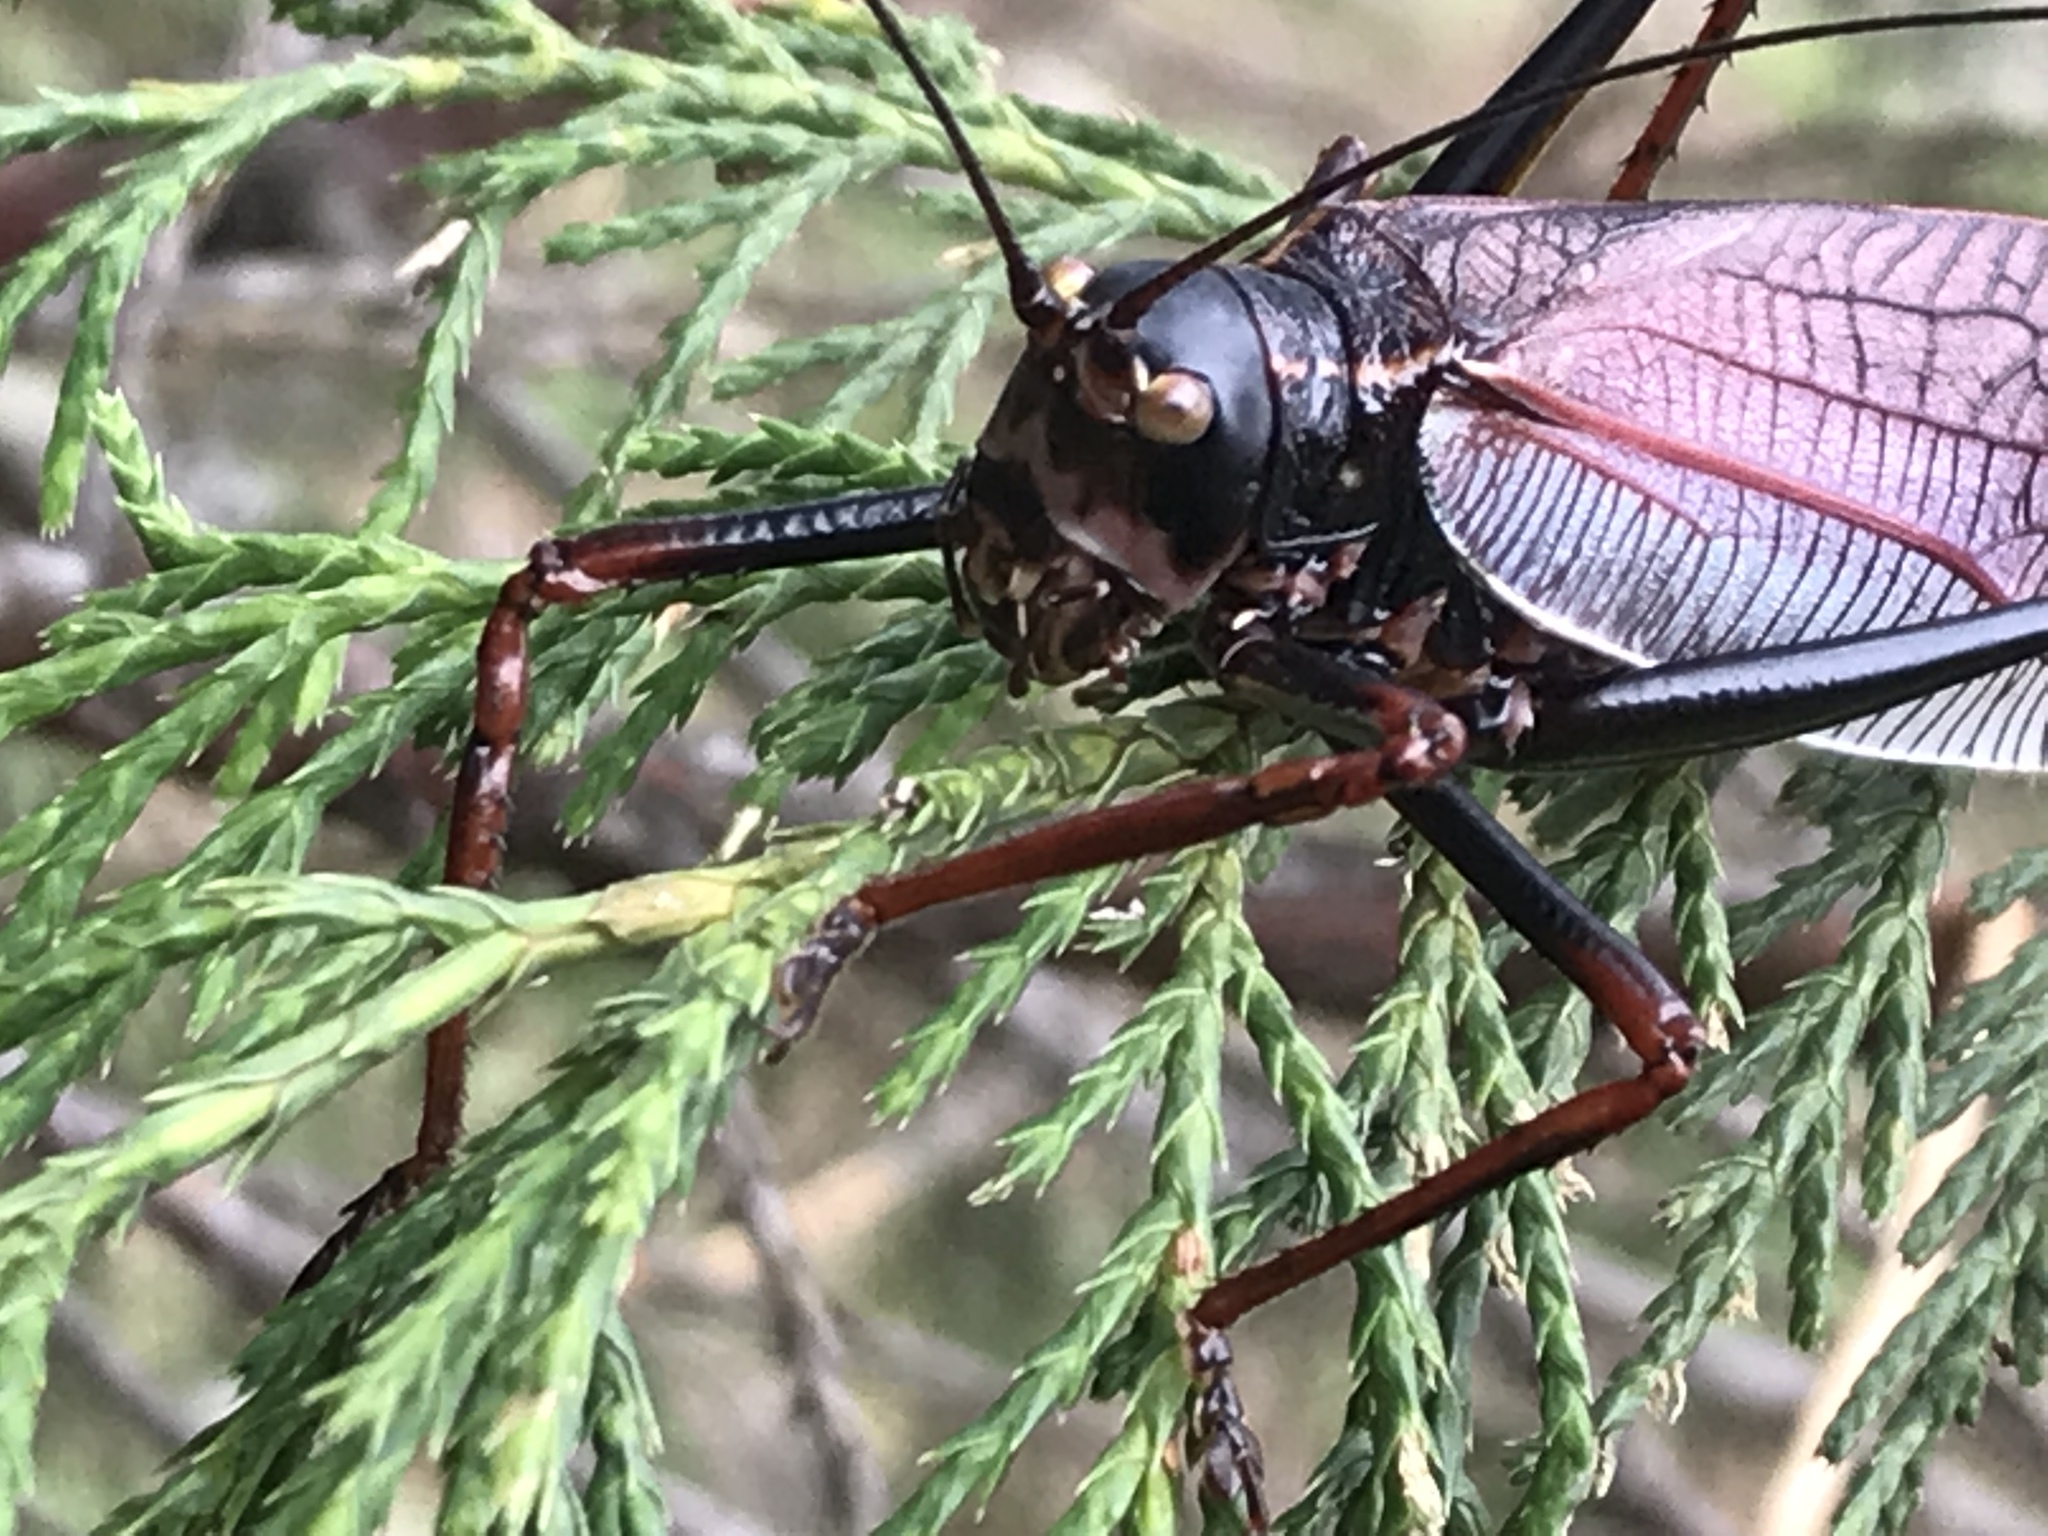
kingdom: Animalia
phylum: Arthropoda
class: Insecta
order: Orthoptera
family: Tettigoniidae
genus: Pterophylla
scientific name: Pterophylla beltrani
